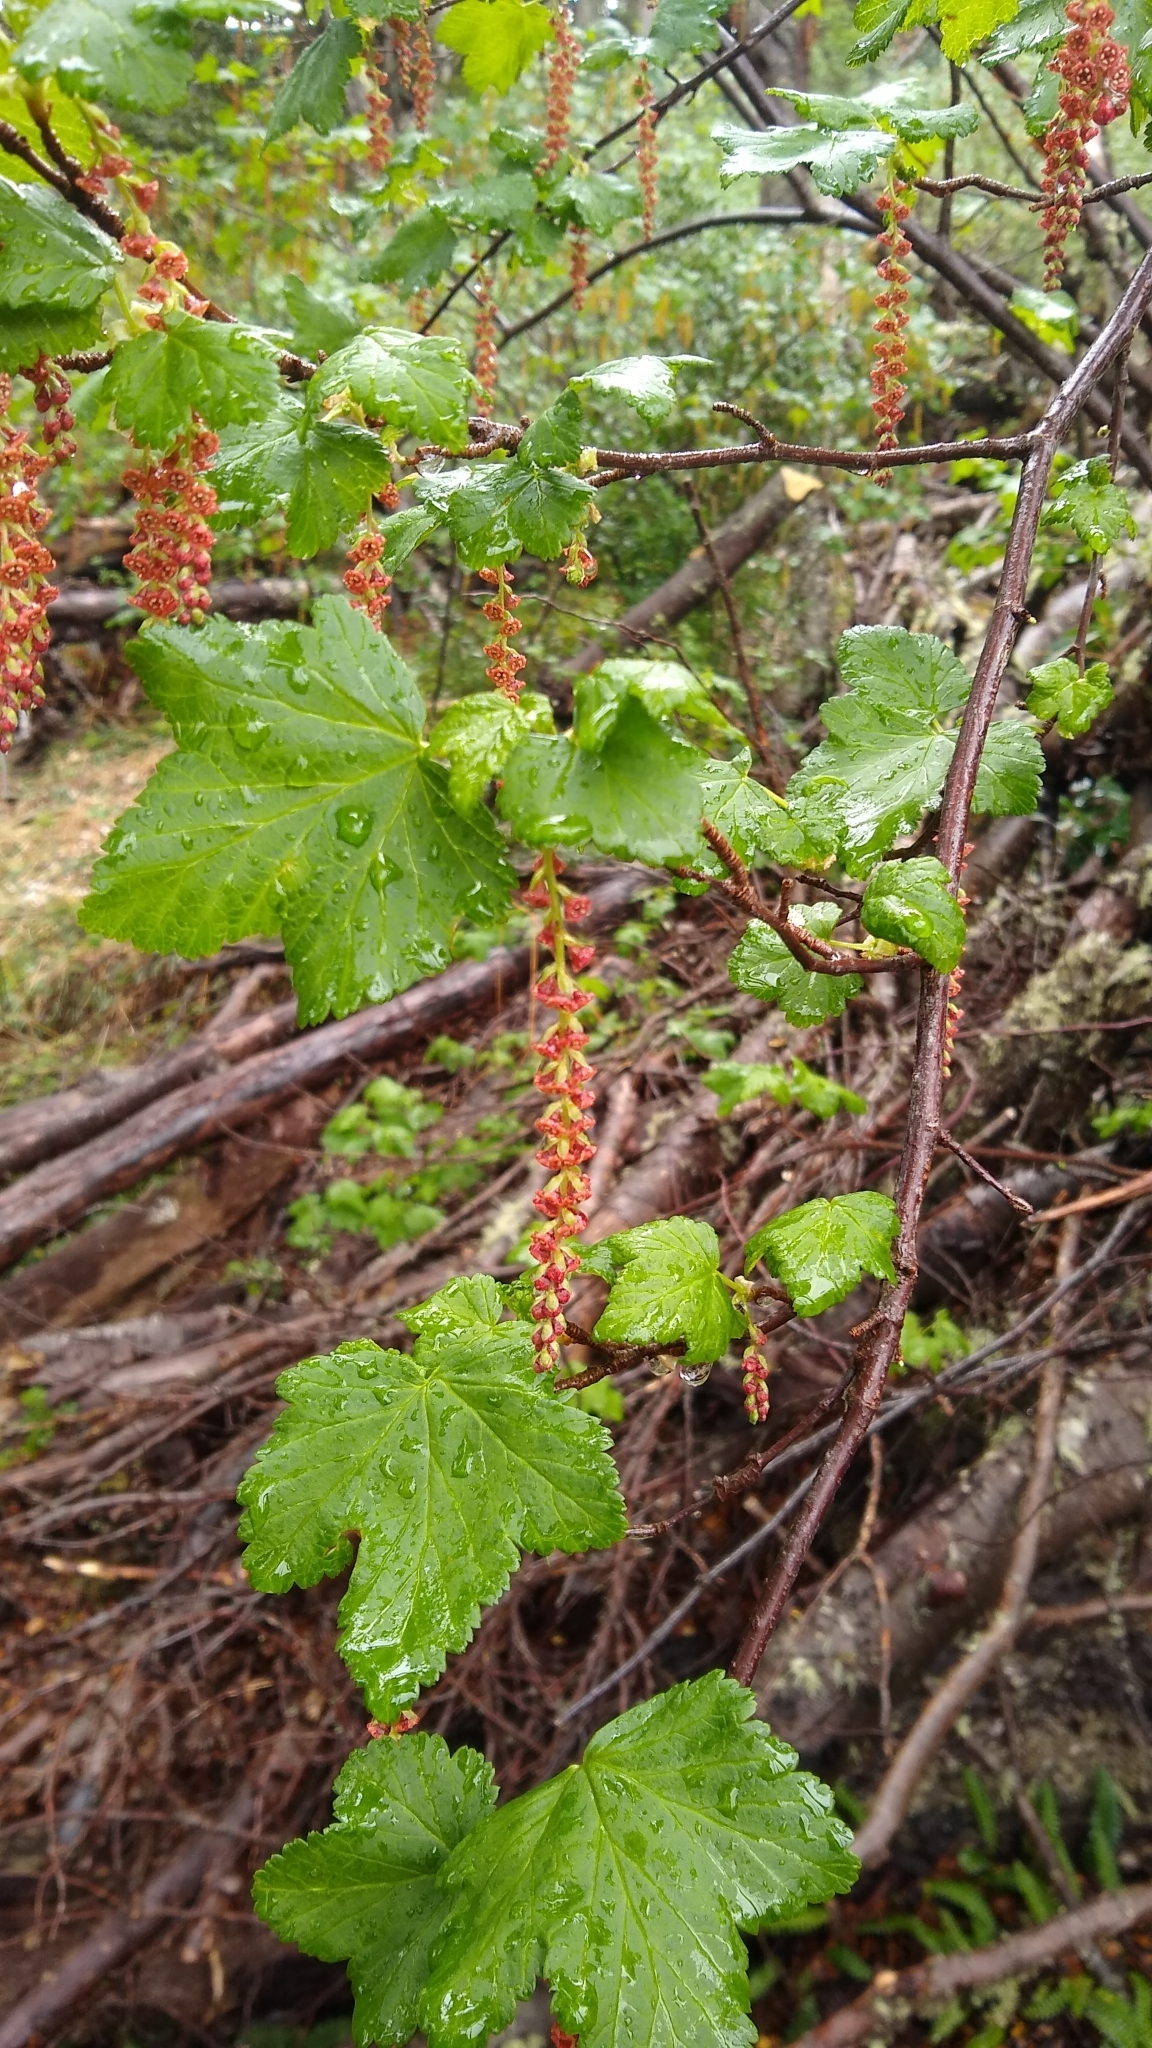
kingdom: Plantae
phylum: Tracheophyta
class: Magnoliopsida
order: Saxifragales
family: Grossulariaceae
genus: Ribes
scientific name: Ribes magellanicum
